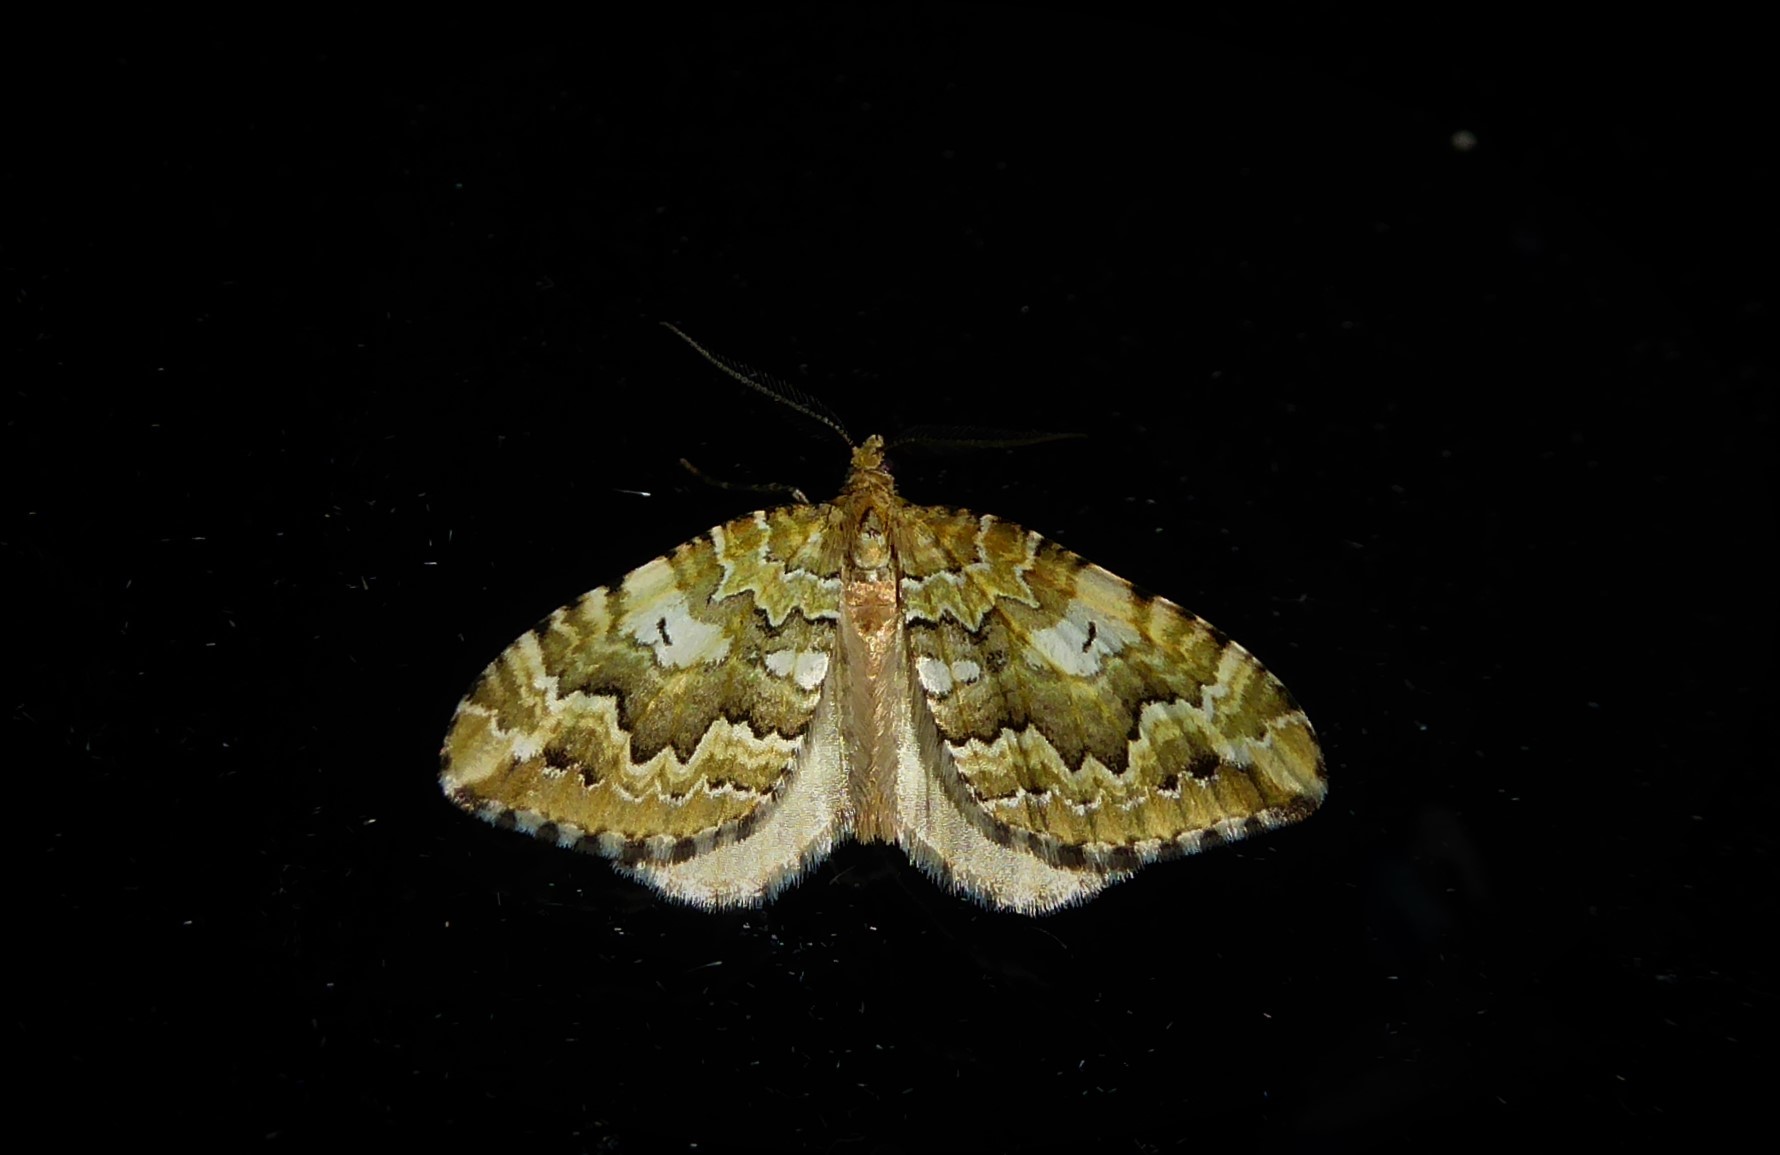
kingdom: Animalia
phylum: Arthropoda
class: Insecta
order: Lepidoptera
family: Geometridae
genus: Asaphodes
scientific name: Asaphodes beata
